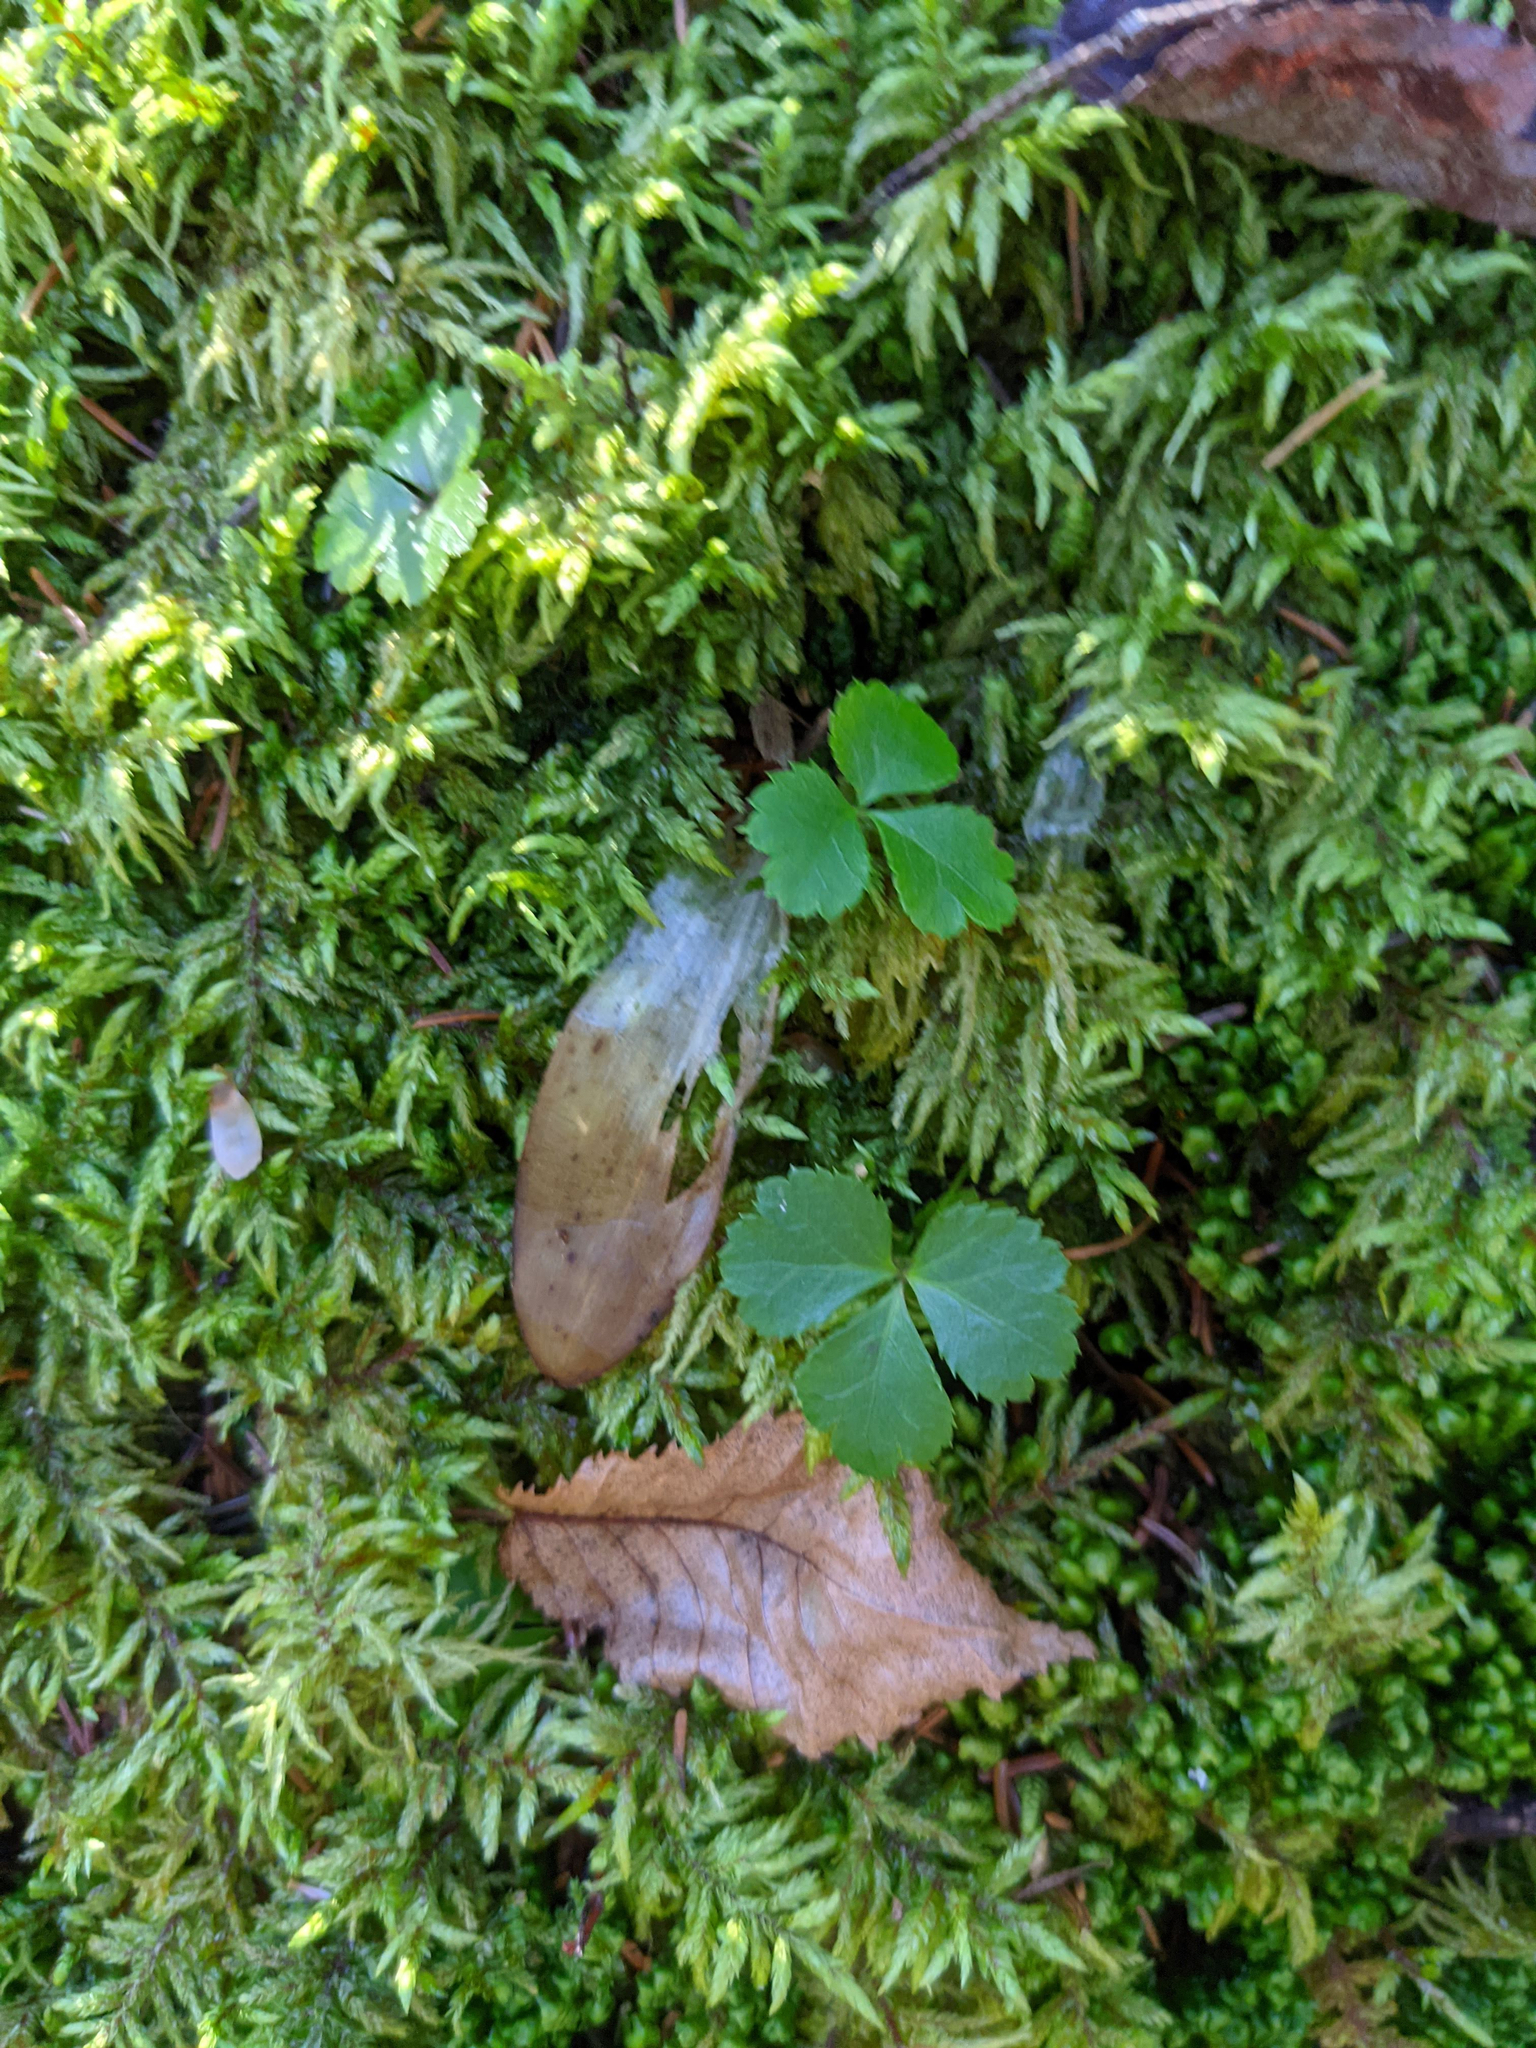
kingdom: Plantae
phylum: Tracheophyta
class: Magnoliopsida
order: Ranunculales
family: Ranunculaceae
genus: Coptis
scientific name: Coptis trifolia
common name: Canker-root
